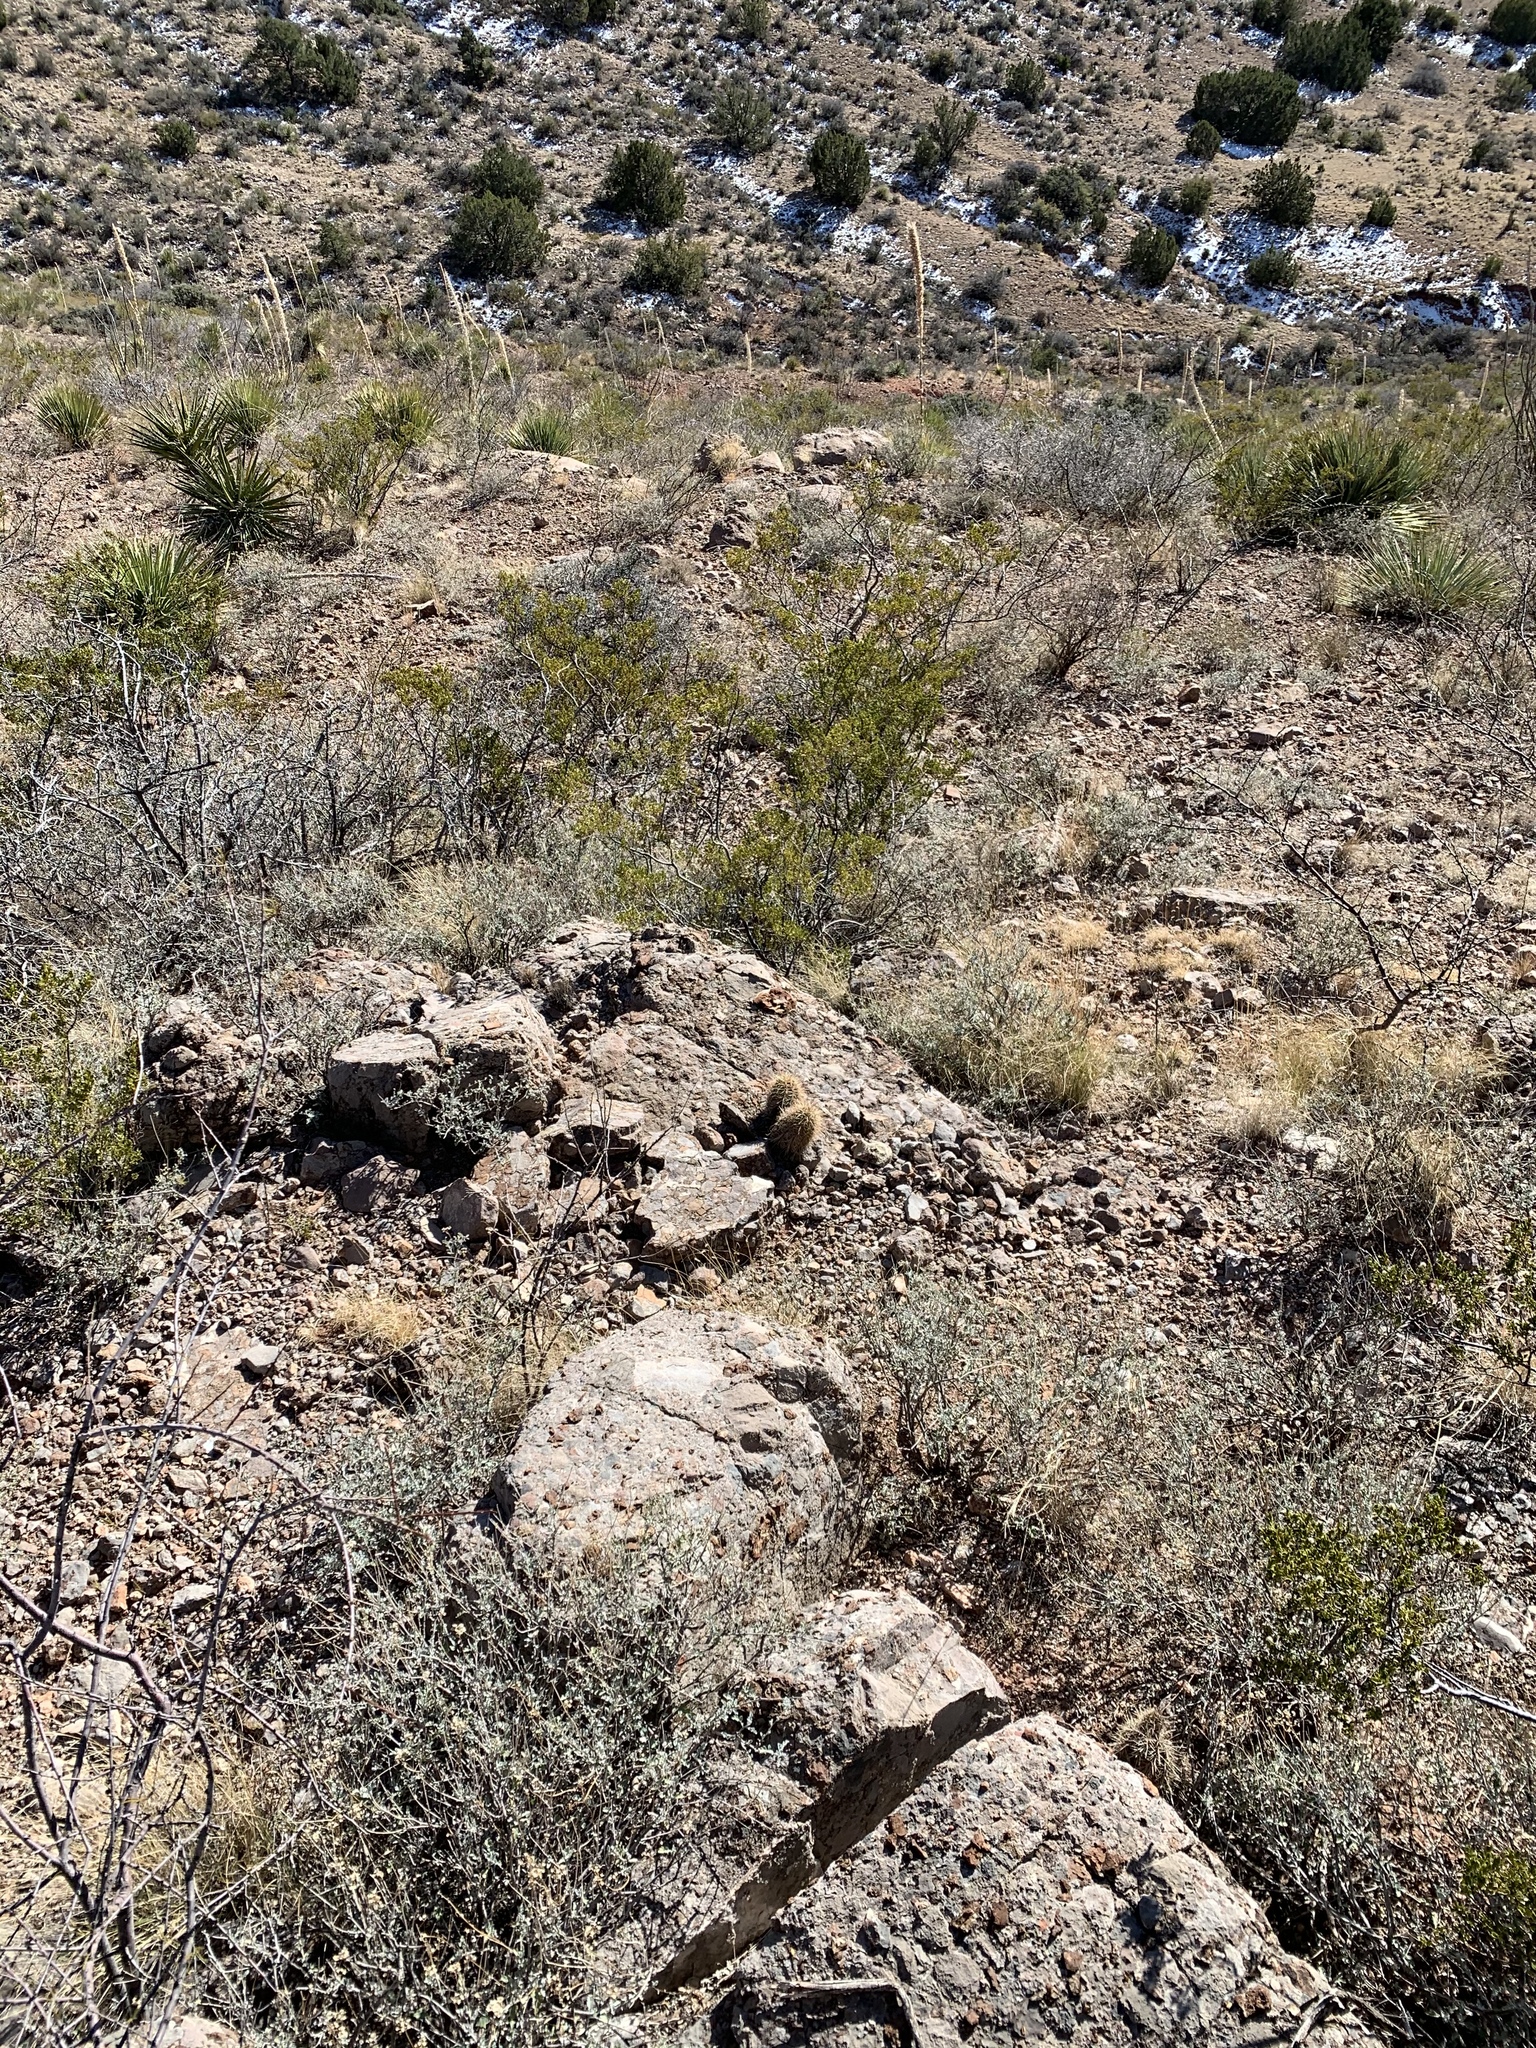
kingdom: Plantae
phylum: Tracheophyta
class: Magnoliopsida
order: Caryophyllales
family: Cactaceae
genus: Echinocereus
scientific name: Echinocereus coccineus
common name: Scarlet hedgehog cactus
